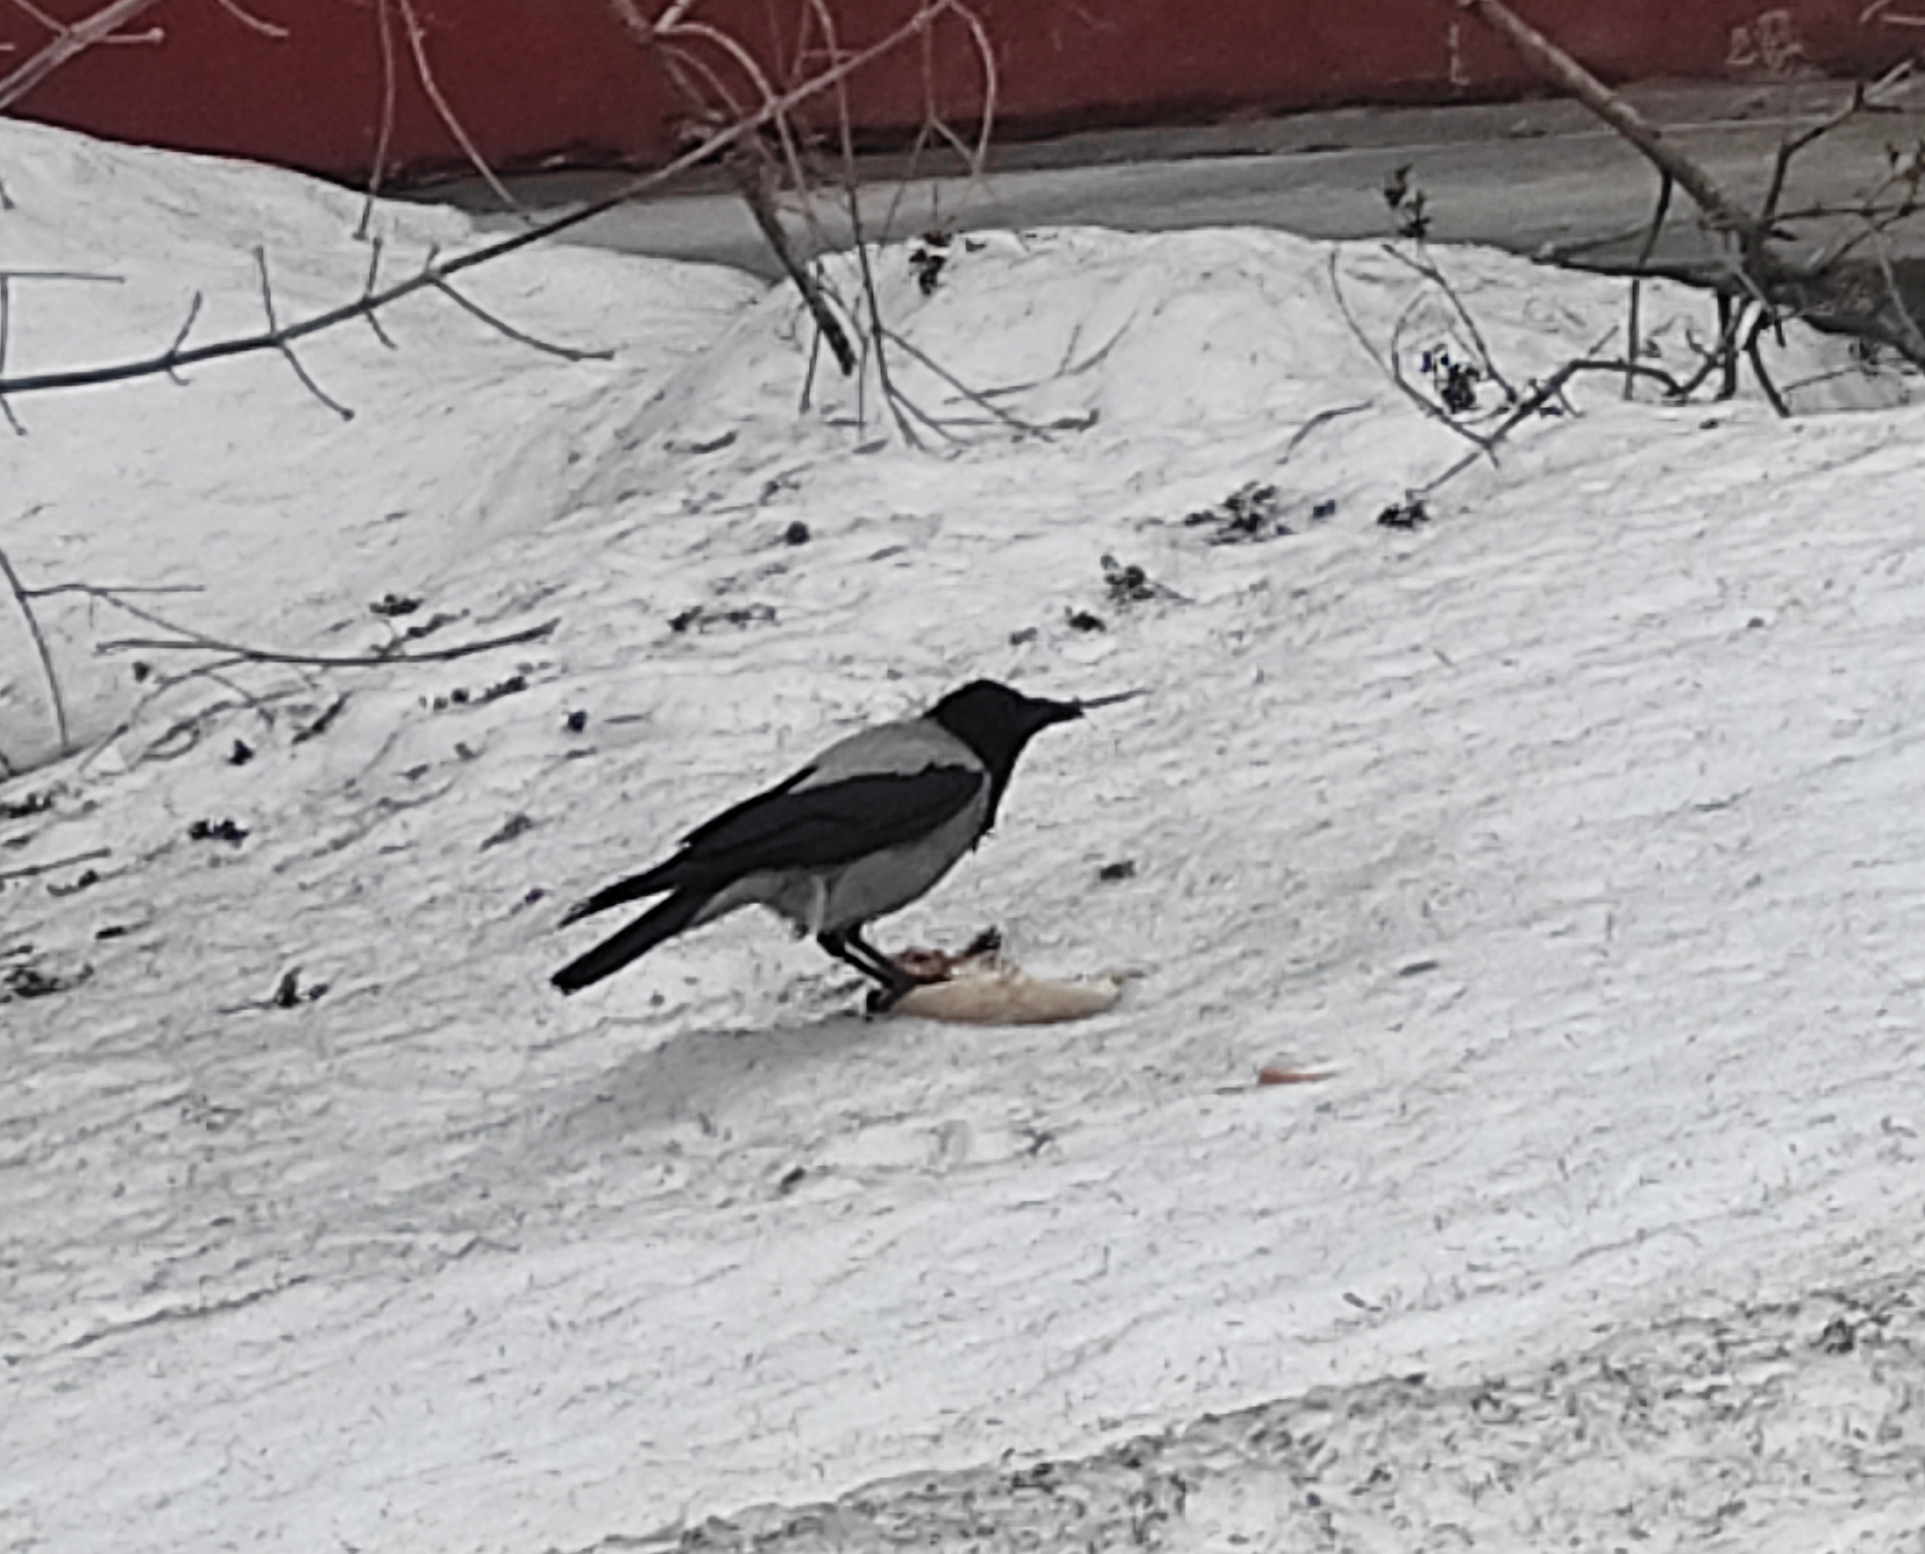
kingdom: Animalia
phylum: Chordata
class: Aves
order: Passeriformes
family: Corvidae
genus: Corvus
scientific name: Corvus cornix
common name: Hooded crow
